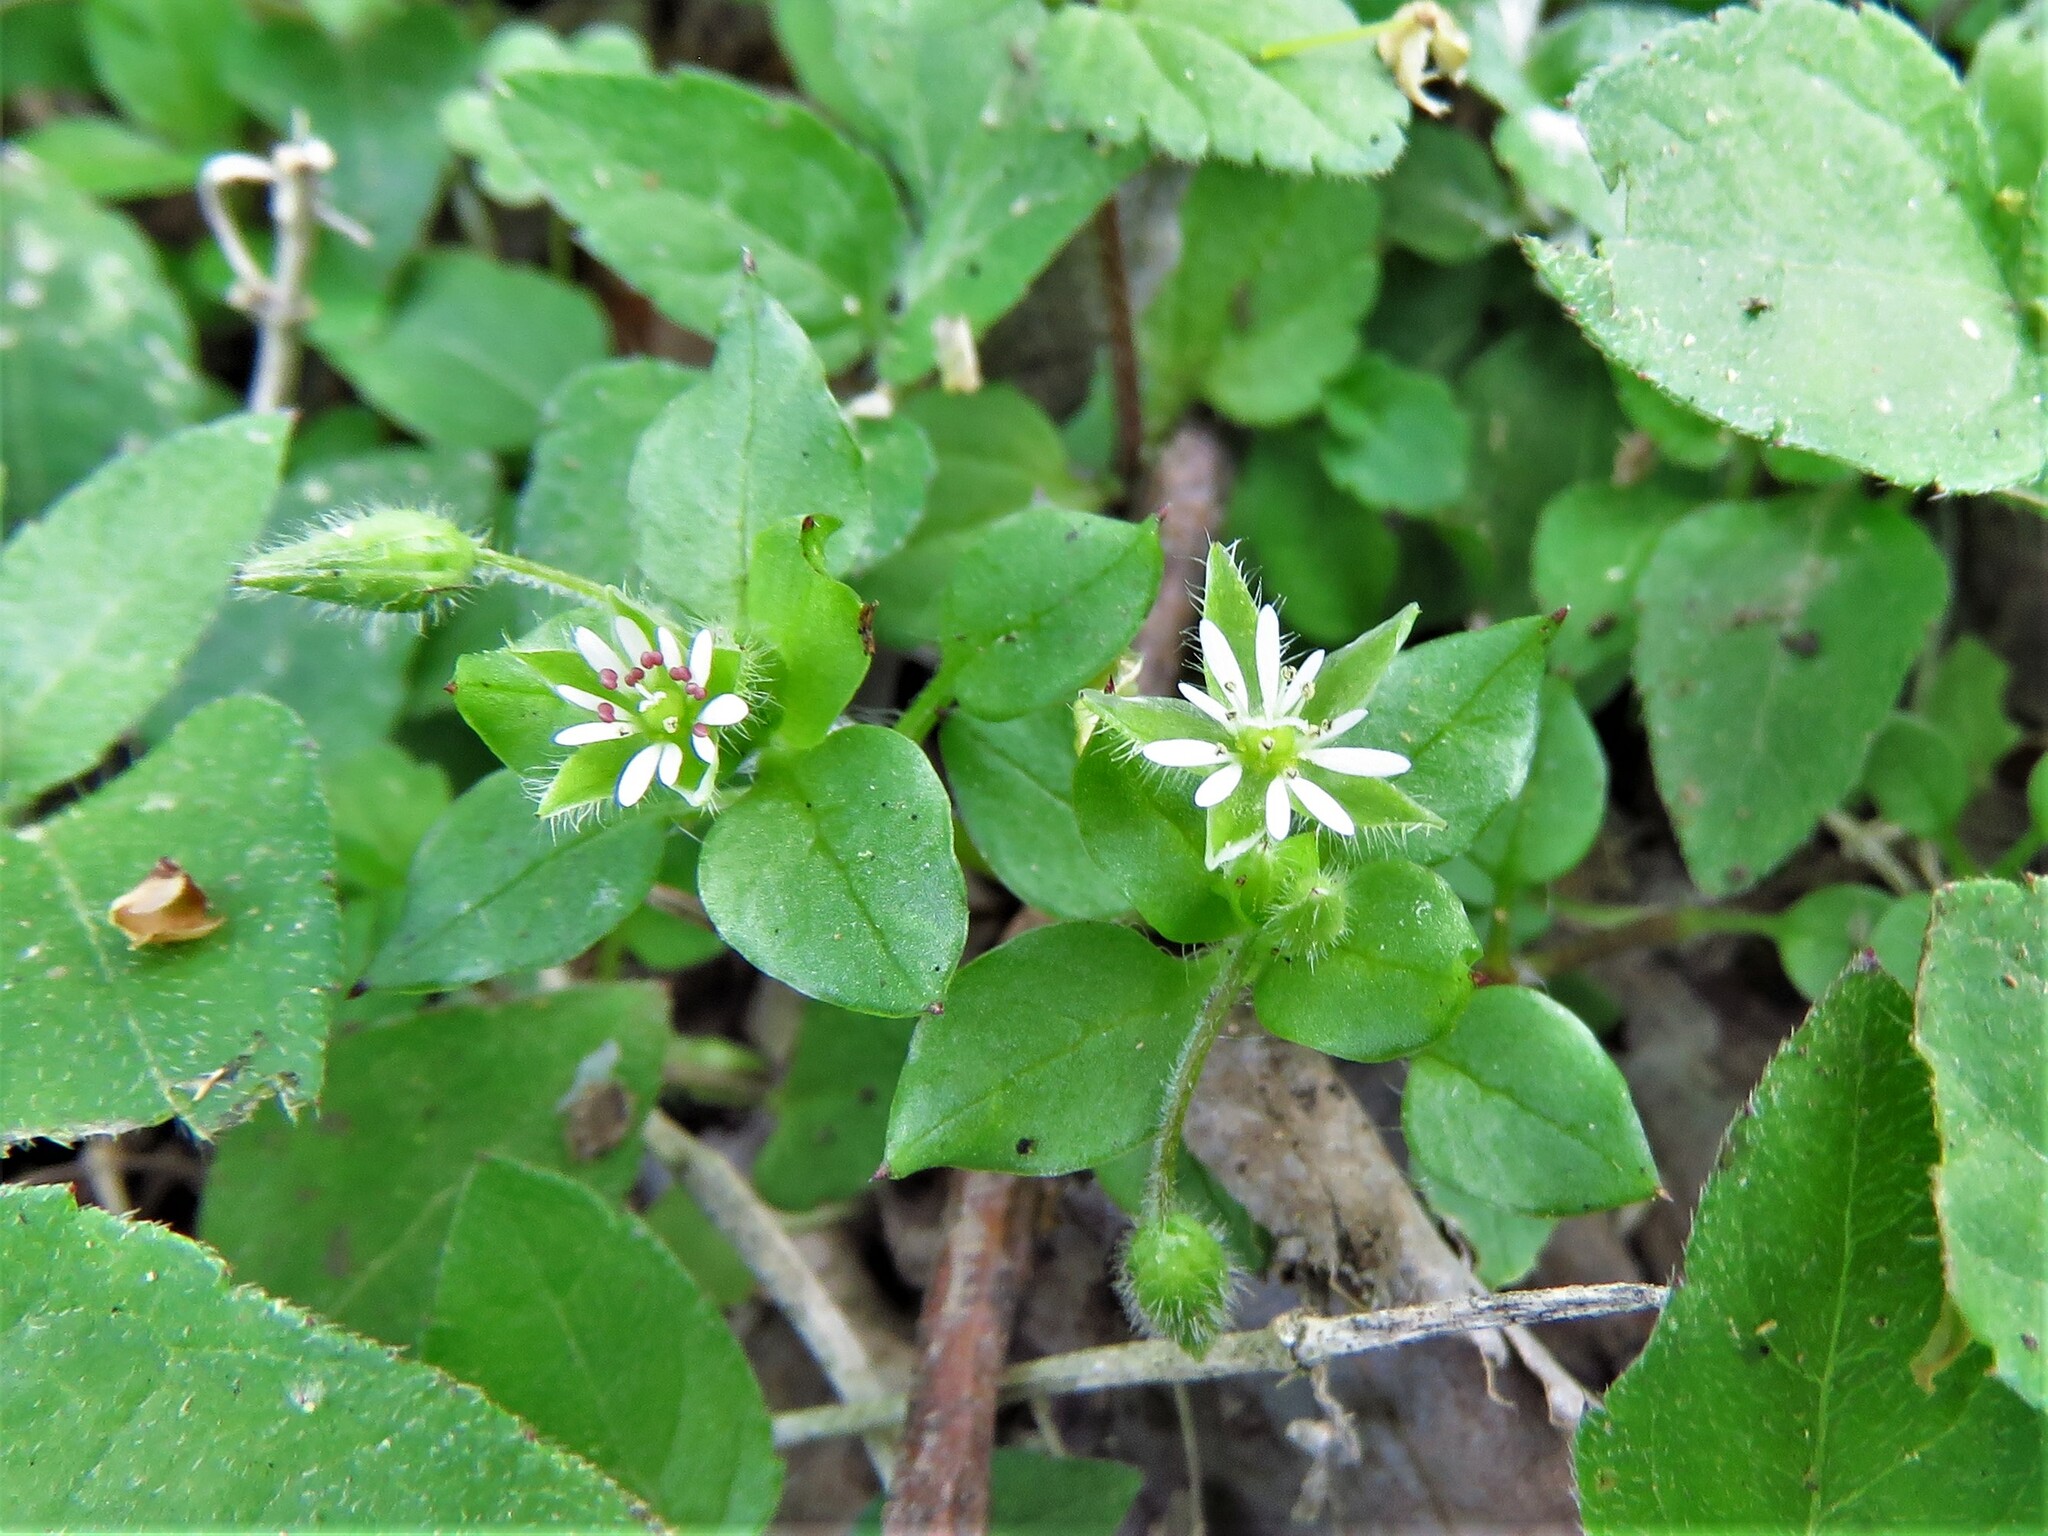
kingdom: Plantae
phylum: Tracheophyta
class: Magnoliopsida
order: Caryophyllales
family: Caryophyllaceae
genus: Stellaria
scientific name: Stellaria media
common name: Common chickweed
